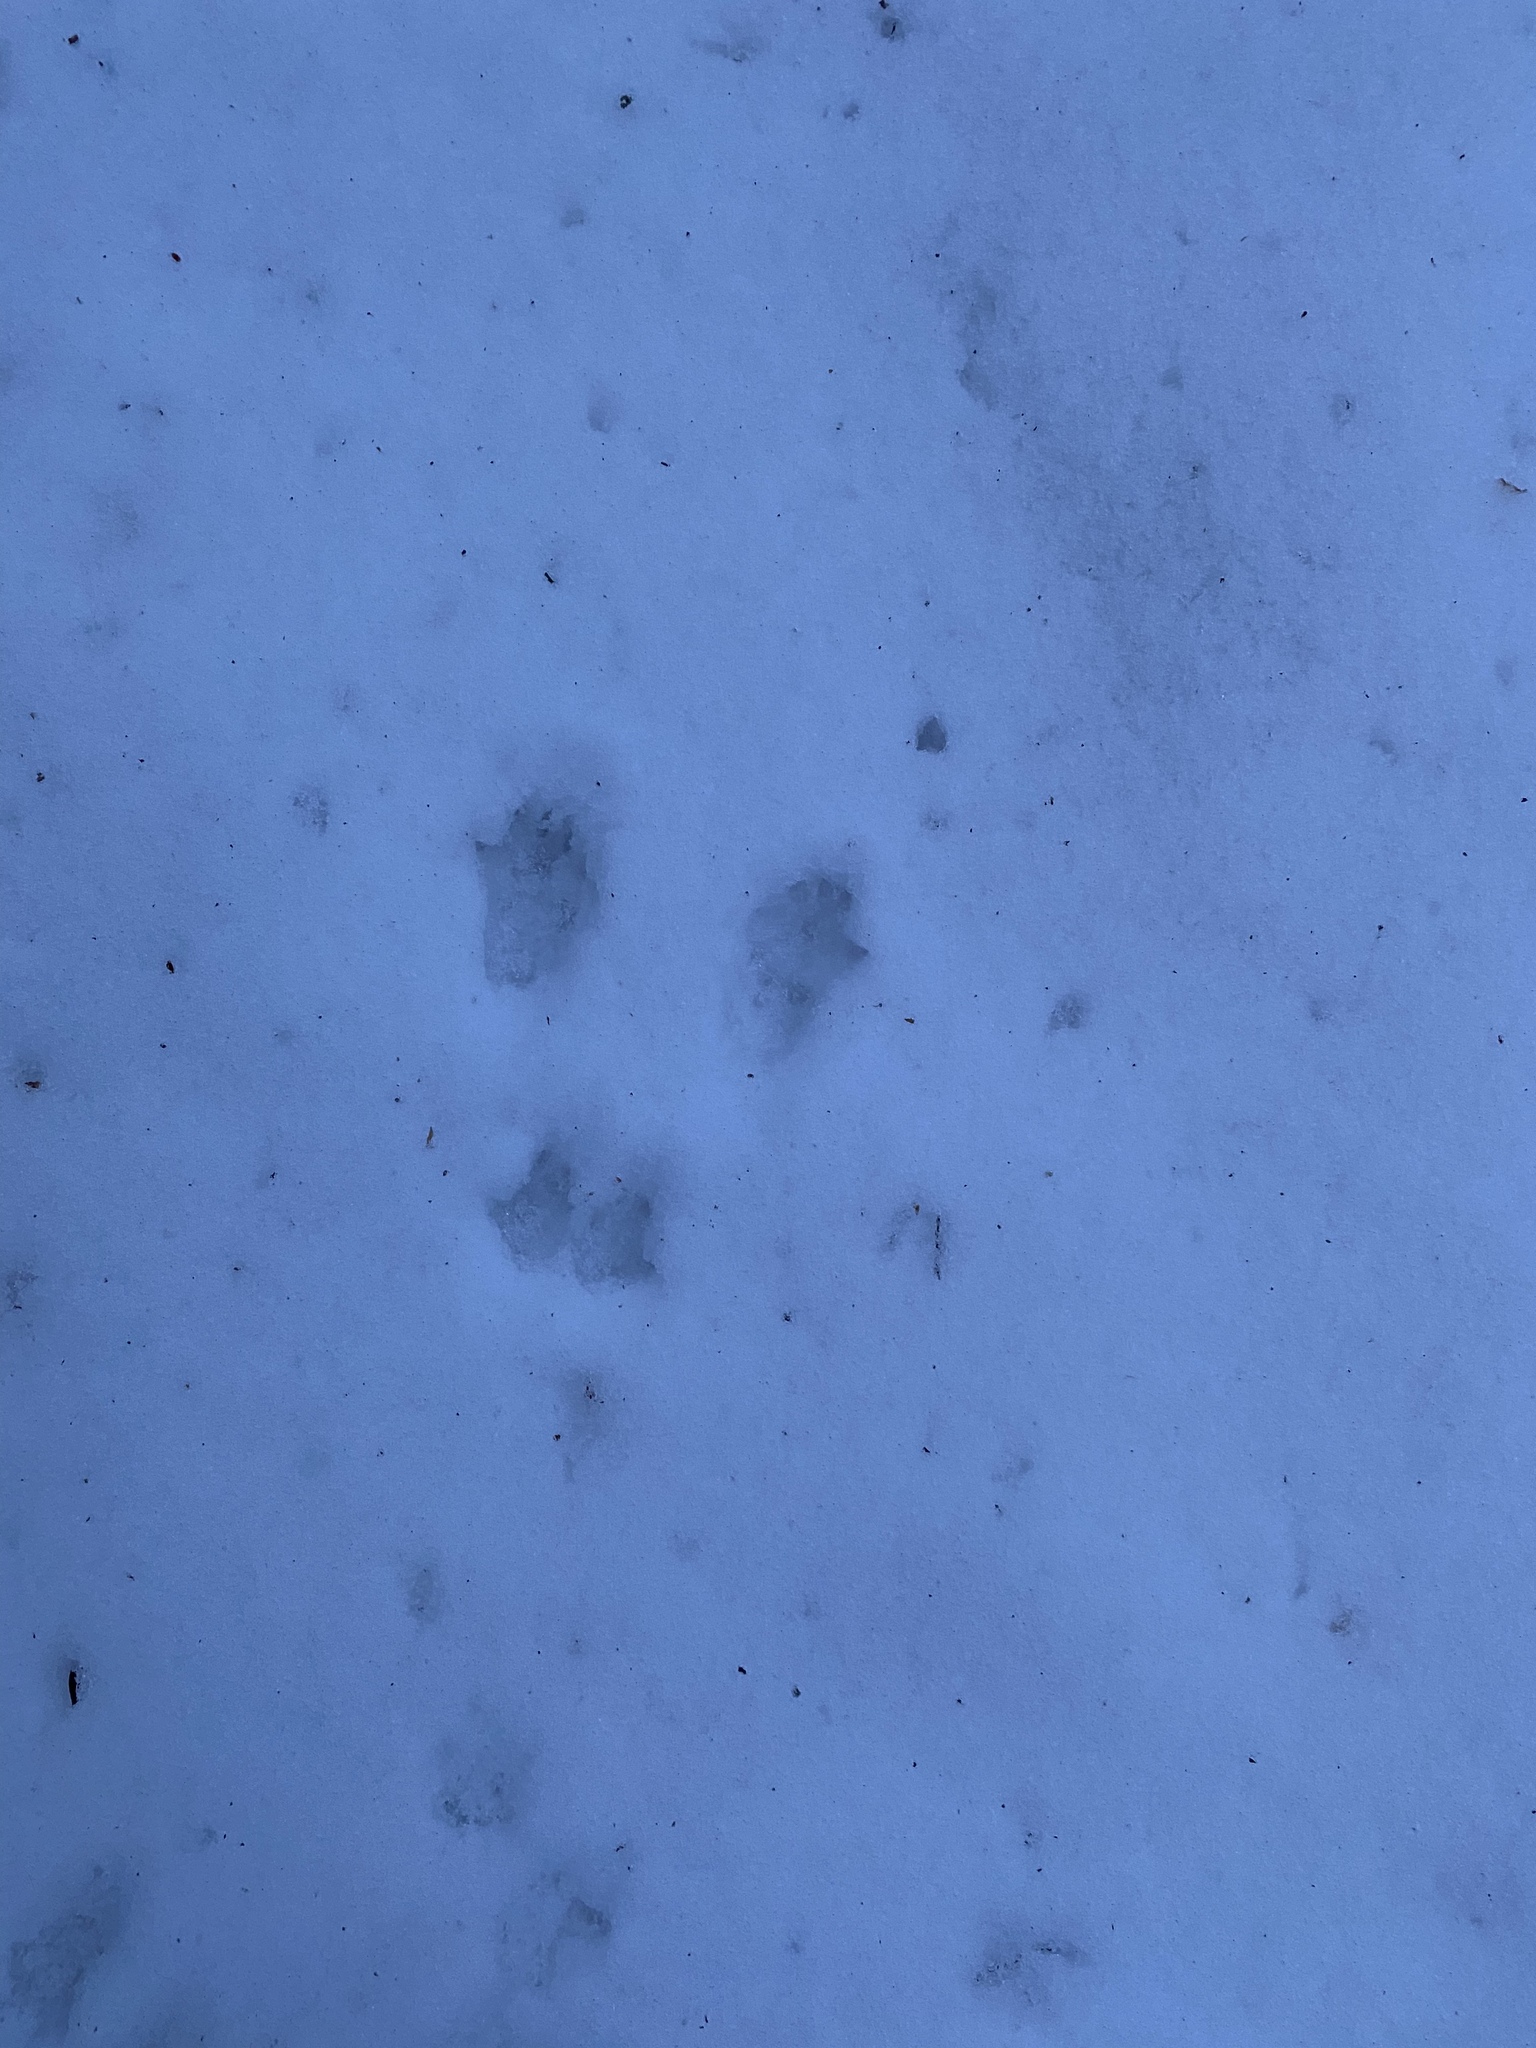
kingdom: Animalia
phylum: Chordata
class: Mammalia
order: Rodentia
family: Sciuridae
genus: Sciurus
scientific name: Sciurus vulgaris
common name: Eurasian red squirrel
